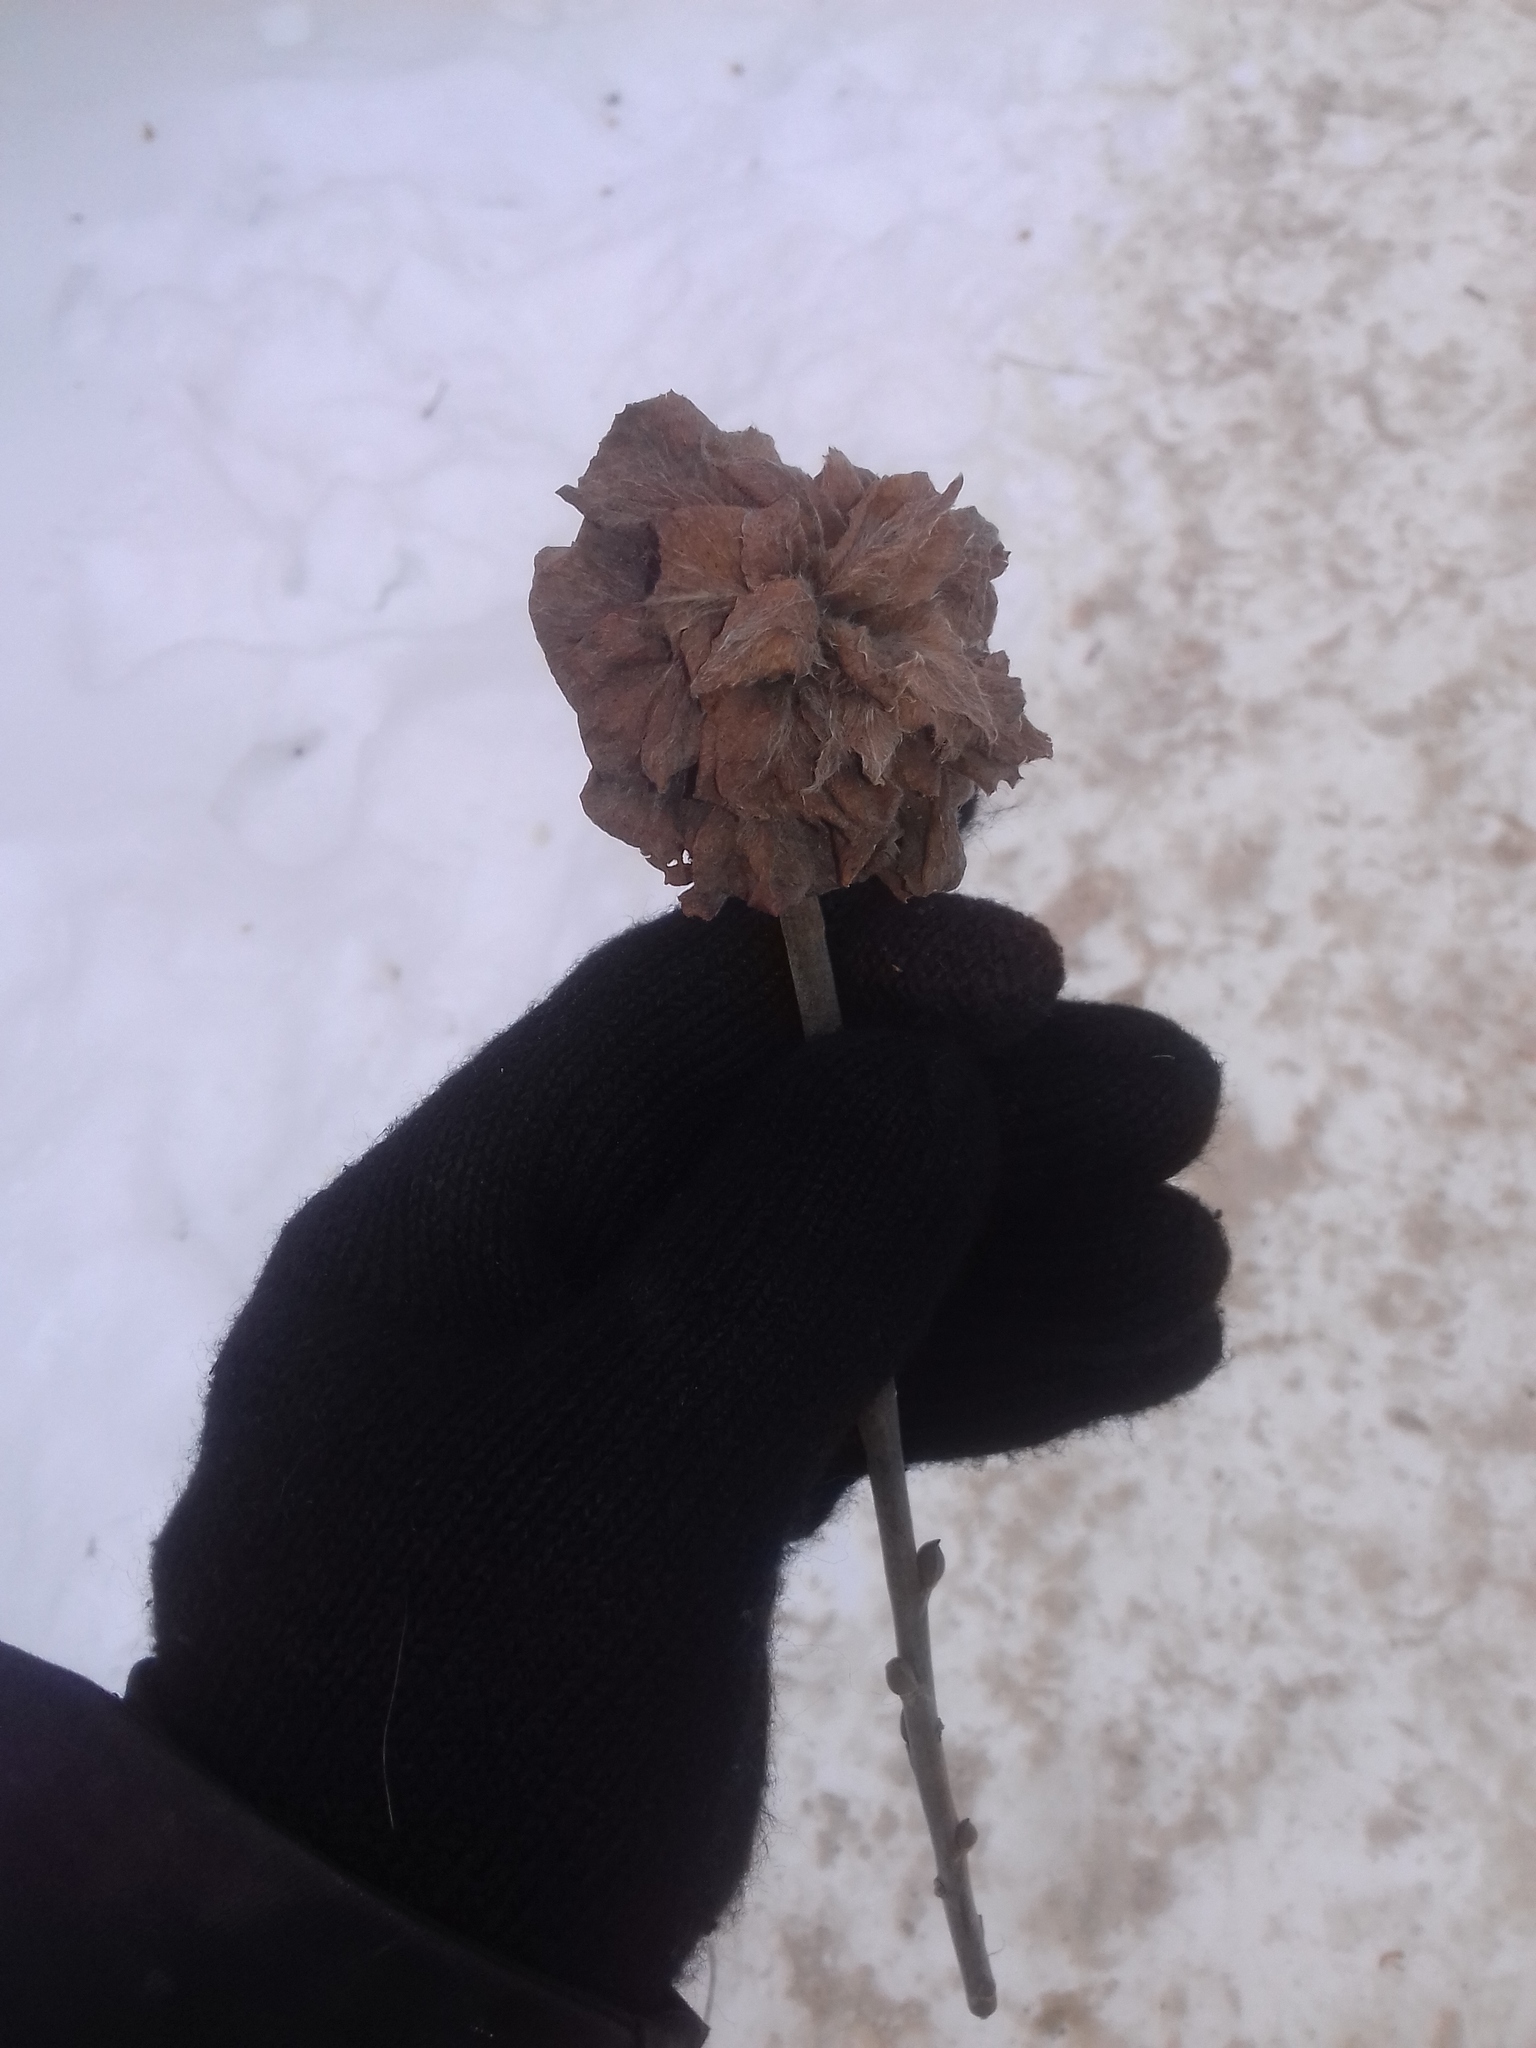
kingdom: Animalia
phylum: Arthropoda
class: Insecta
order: Diptera
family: Cecidomyiidae
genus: Rabdophaga
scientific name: Rabdophaga rosaria
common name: Willow rose gall midge
